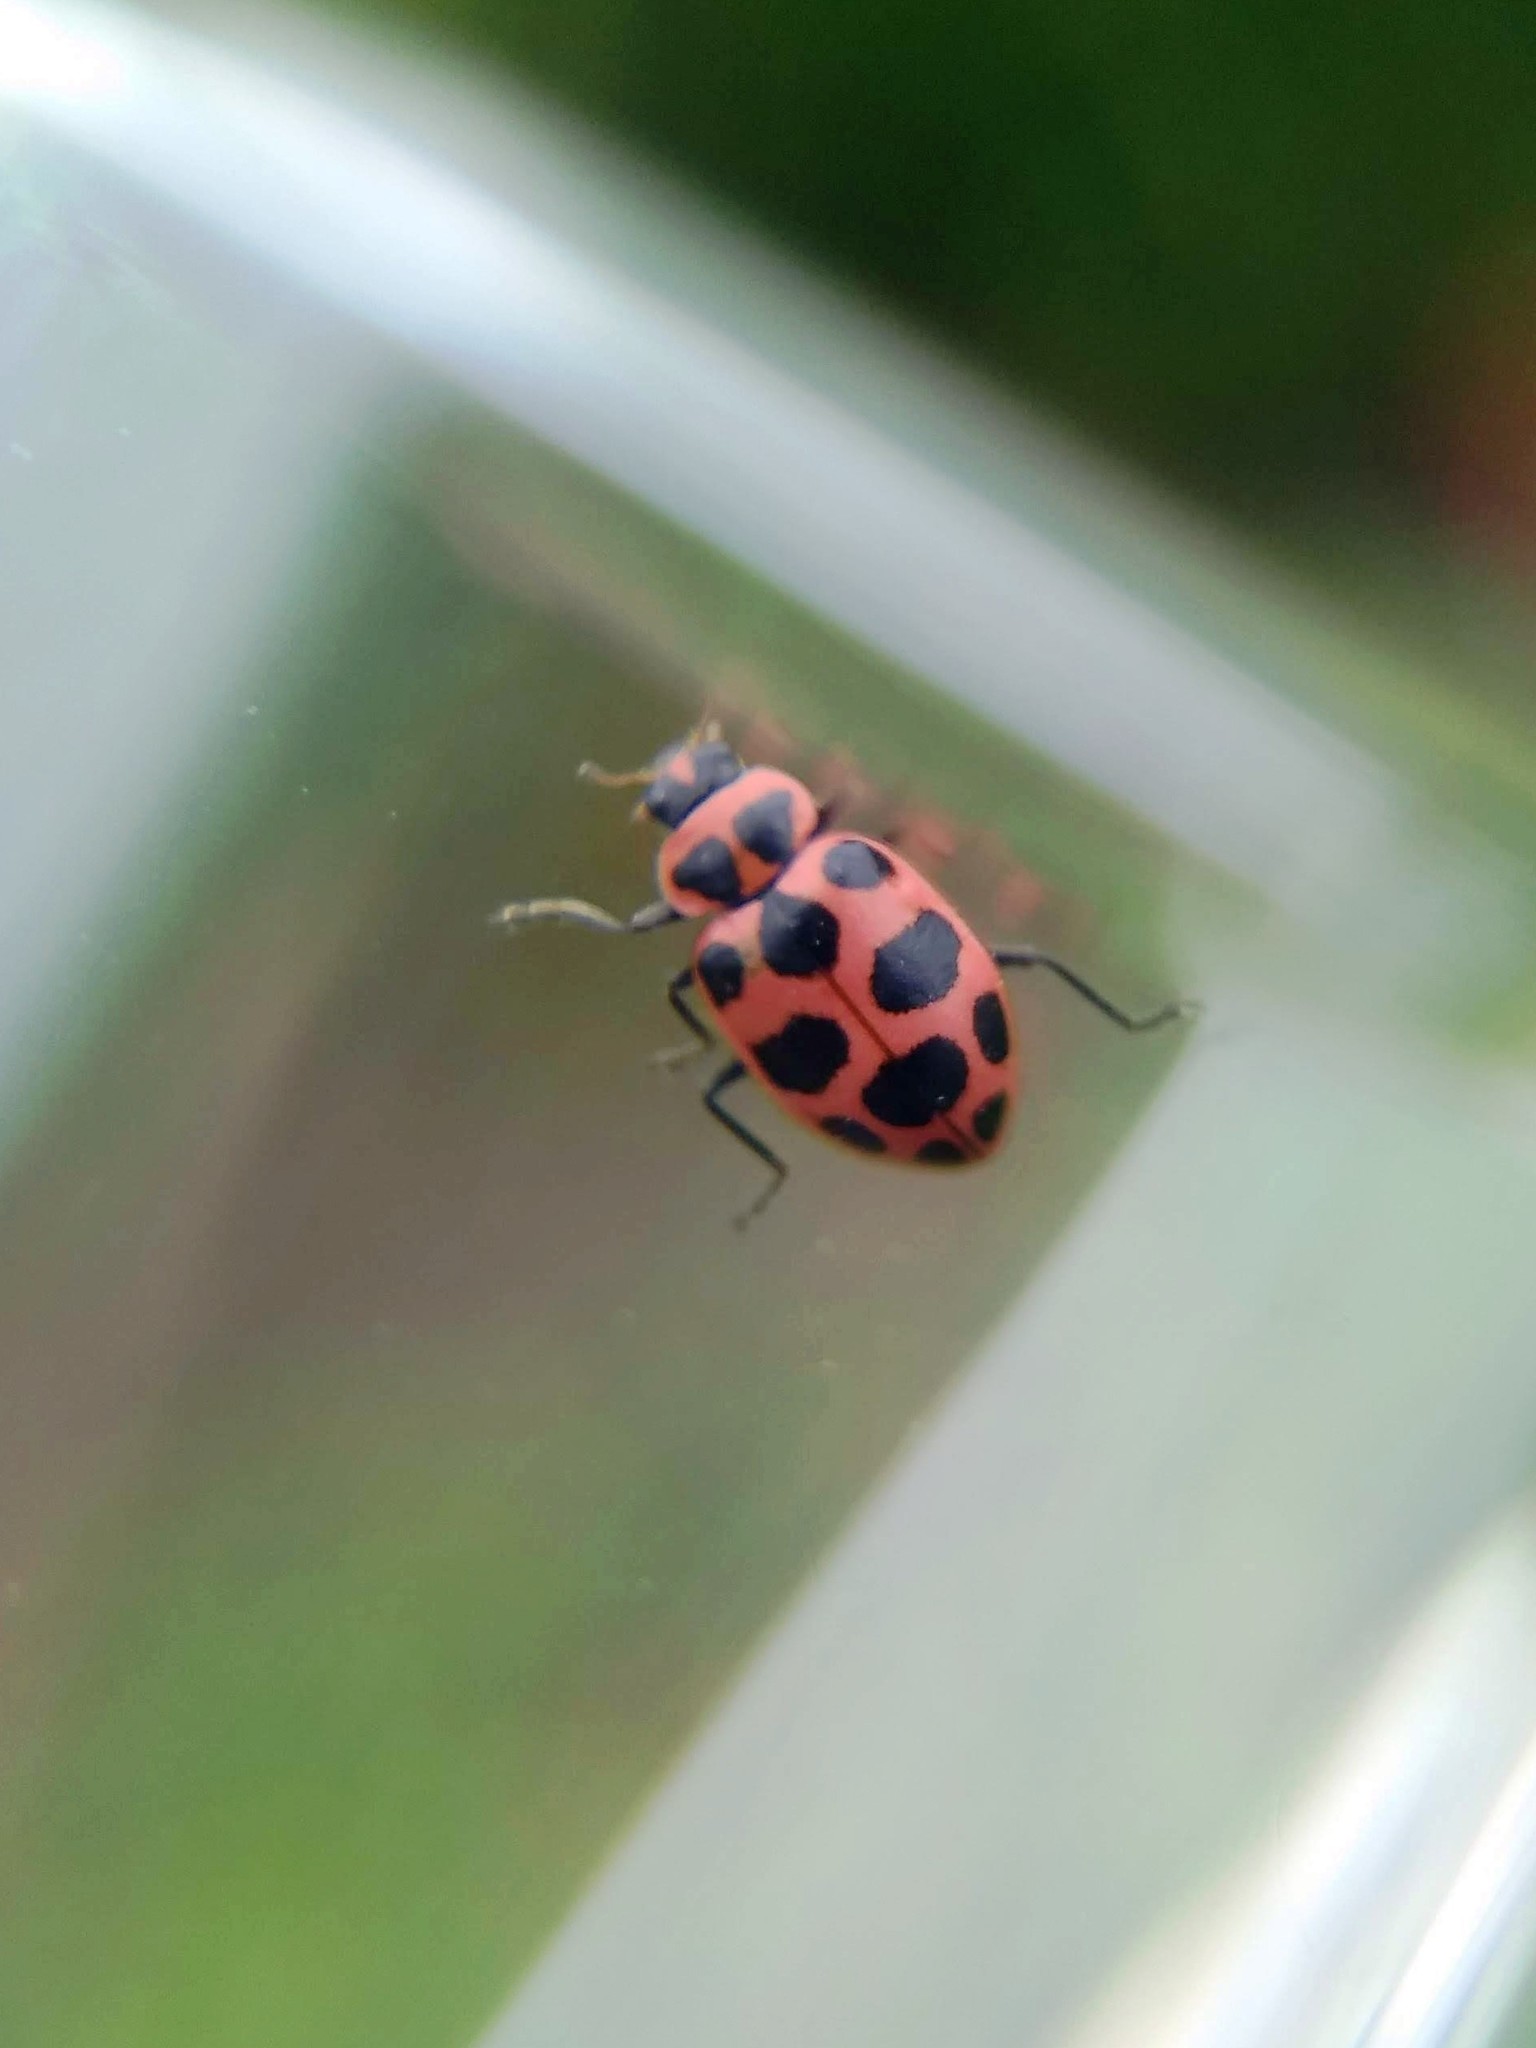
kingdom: Animalia
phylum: Arthropoda
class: Insecta
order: Coleoptera
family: Coccinellidae
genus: Coleomegilla
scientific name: Coleomegilla maculata
